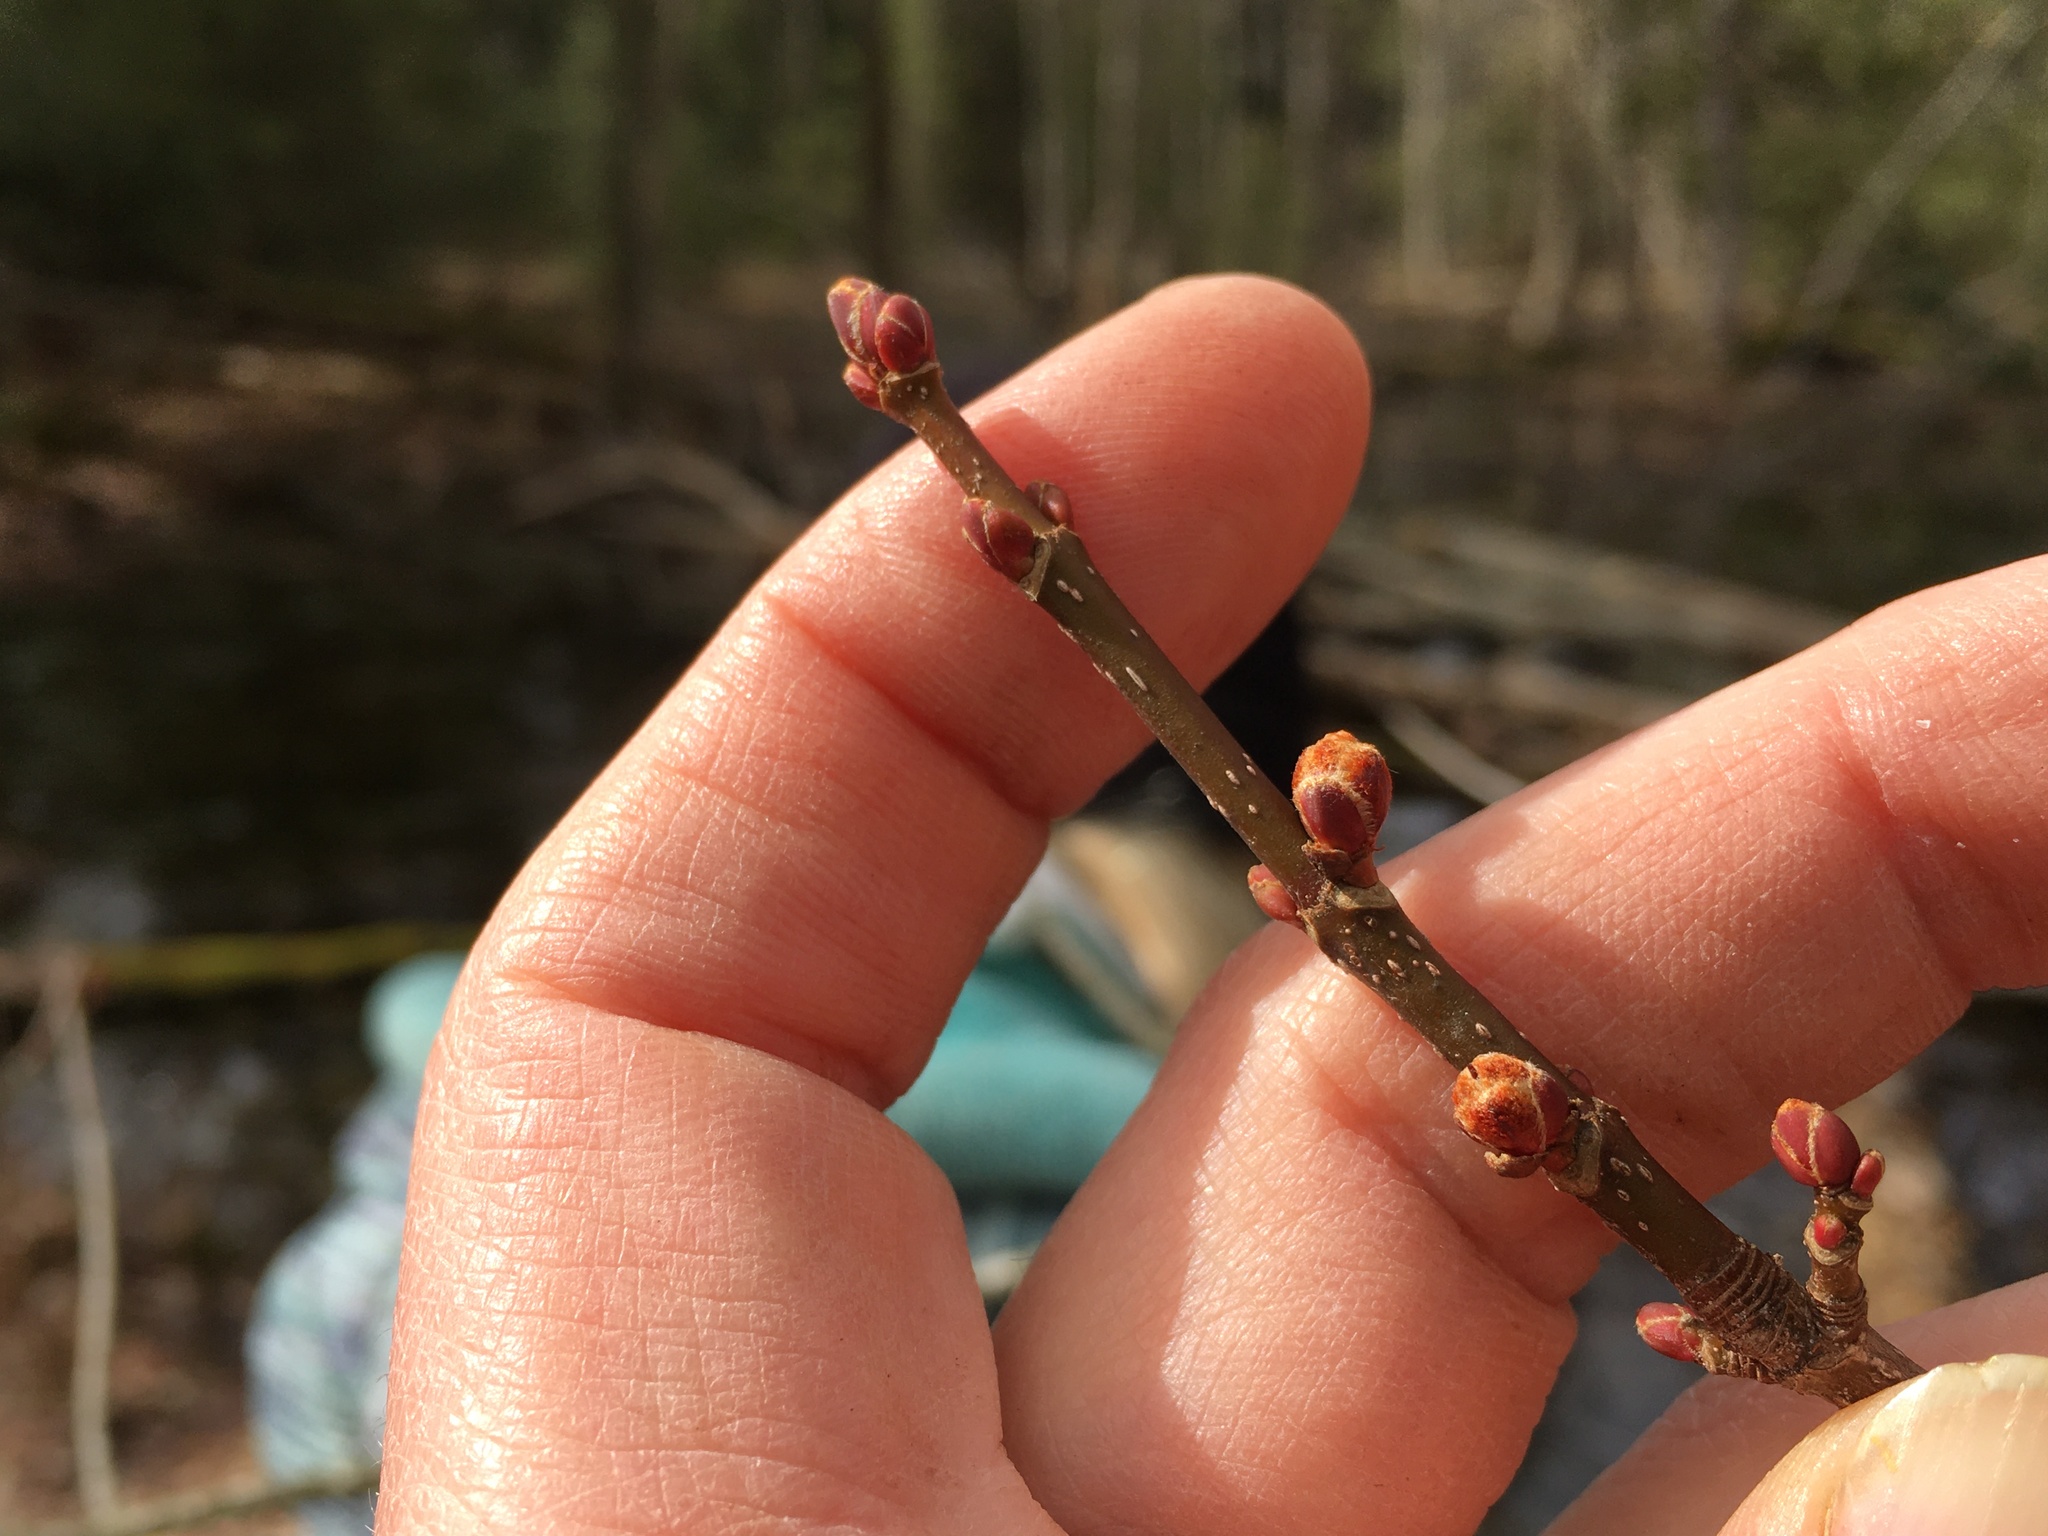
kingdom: Plantae
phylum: Tracheophyta
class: Magnoliopsida
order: Sapindales
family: Sapindaceae
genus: Acer
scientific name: Acer rubrum
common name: Red maple
